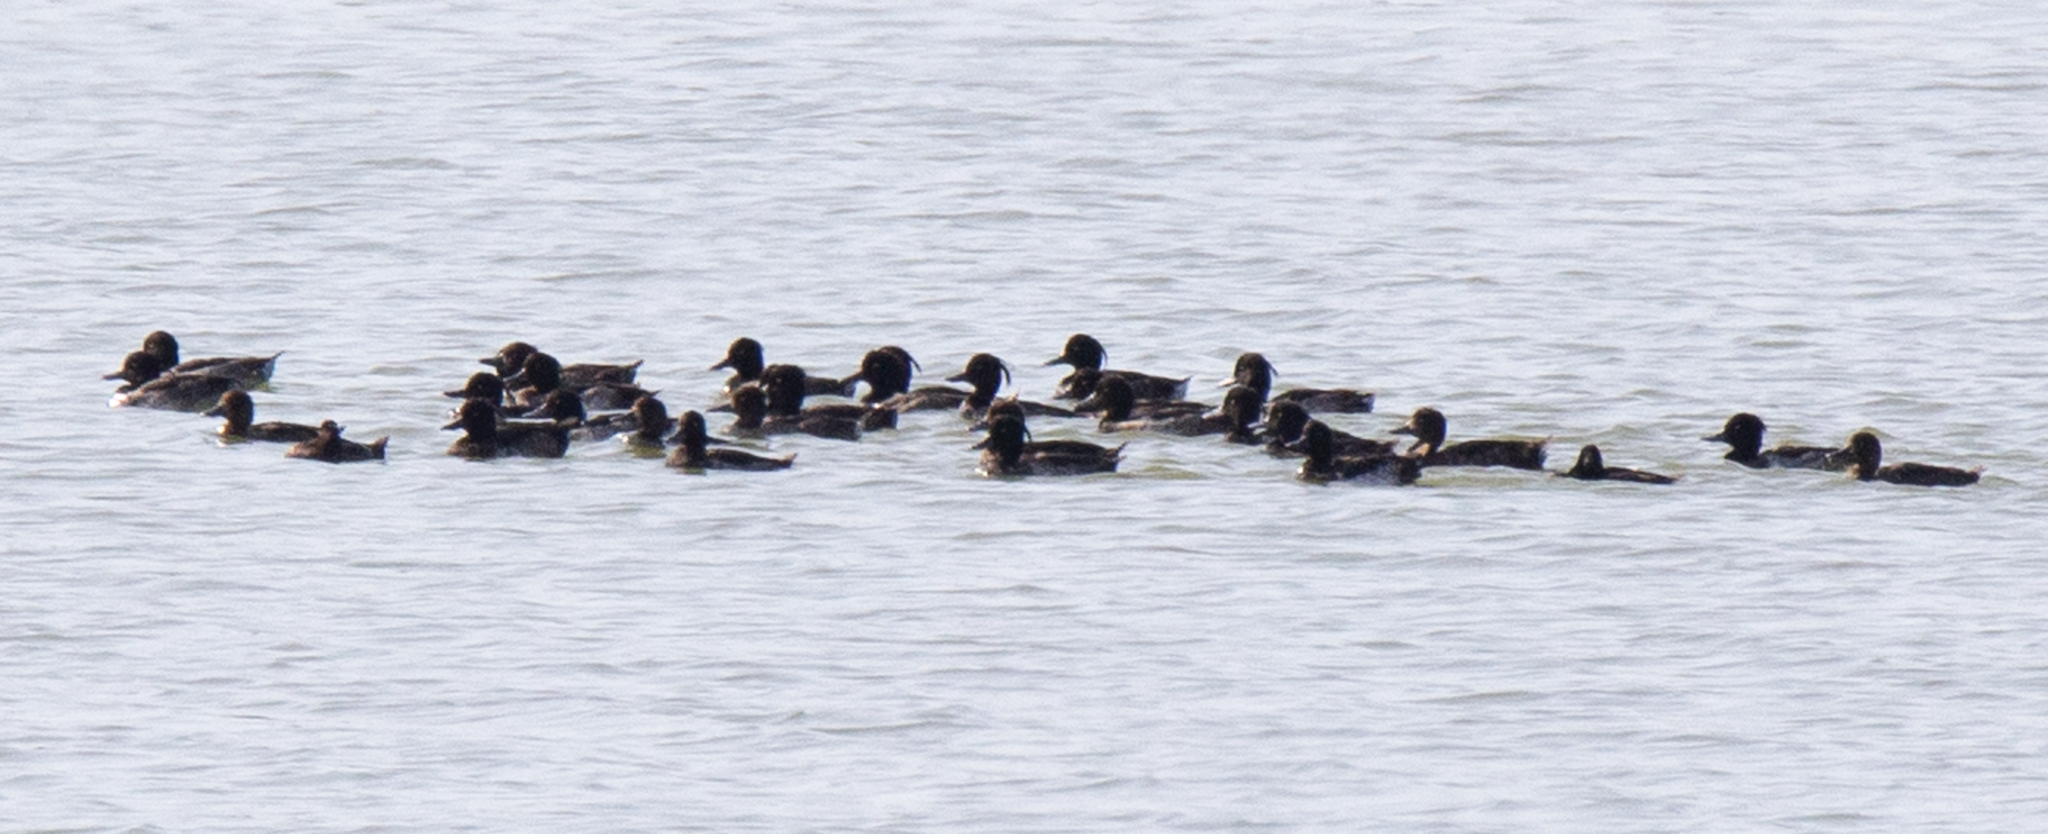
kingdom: Animalia
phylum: Chordata
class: Aves
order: Anseriformes
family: Anatidae
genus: Aythya
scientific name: Aythya fuligula
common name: Tufted duck
